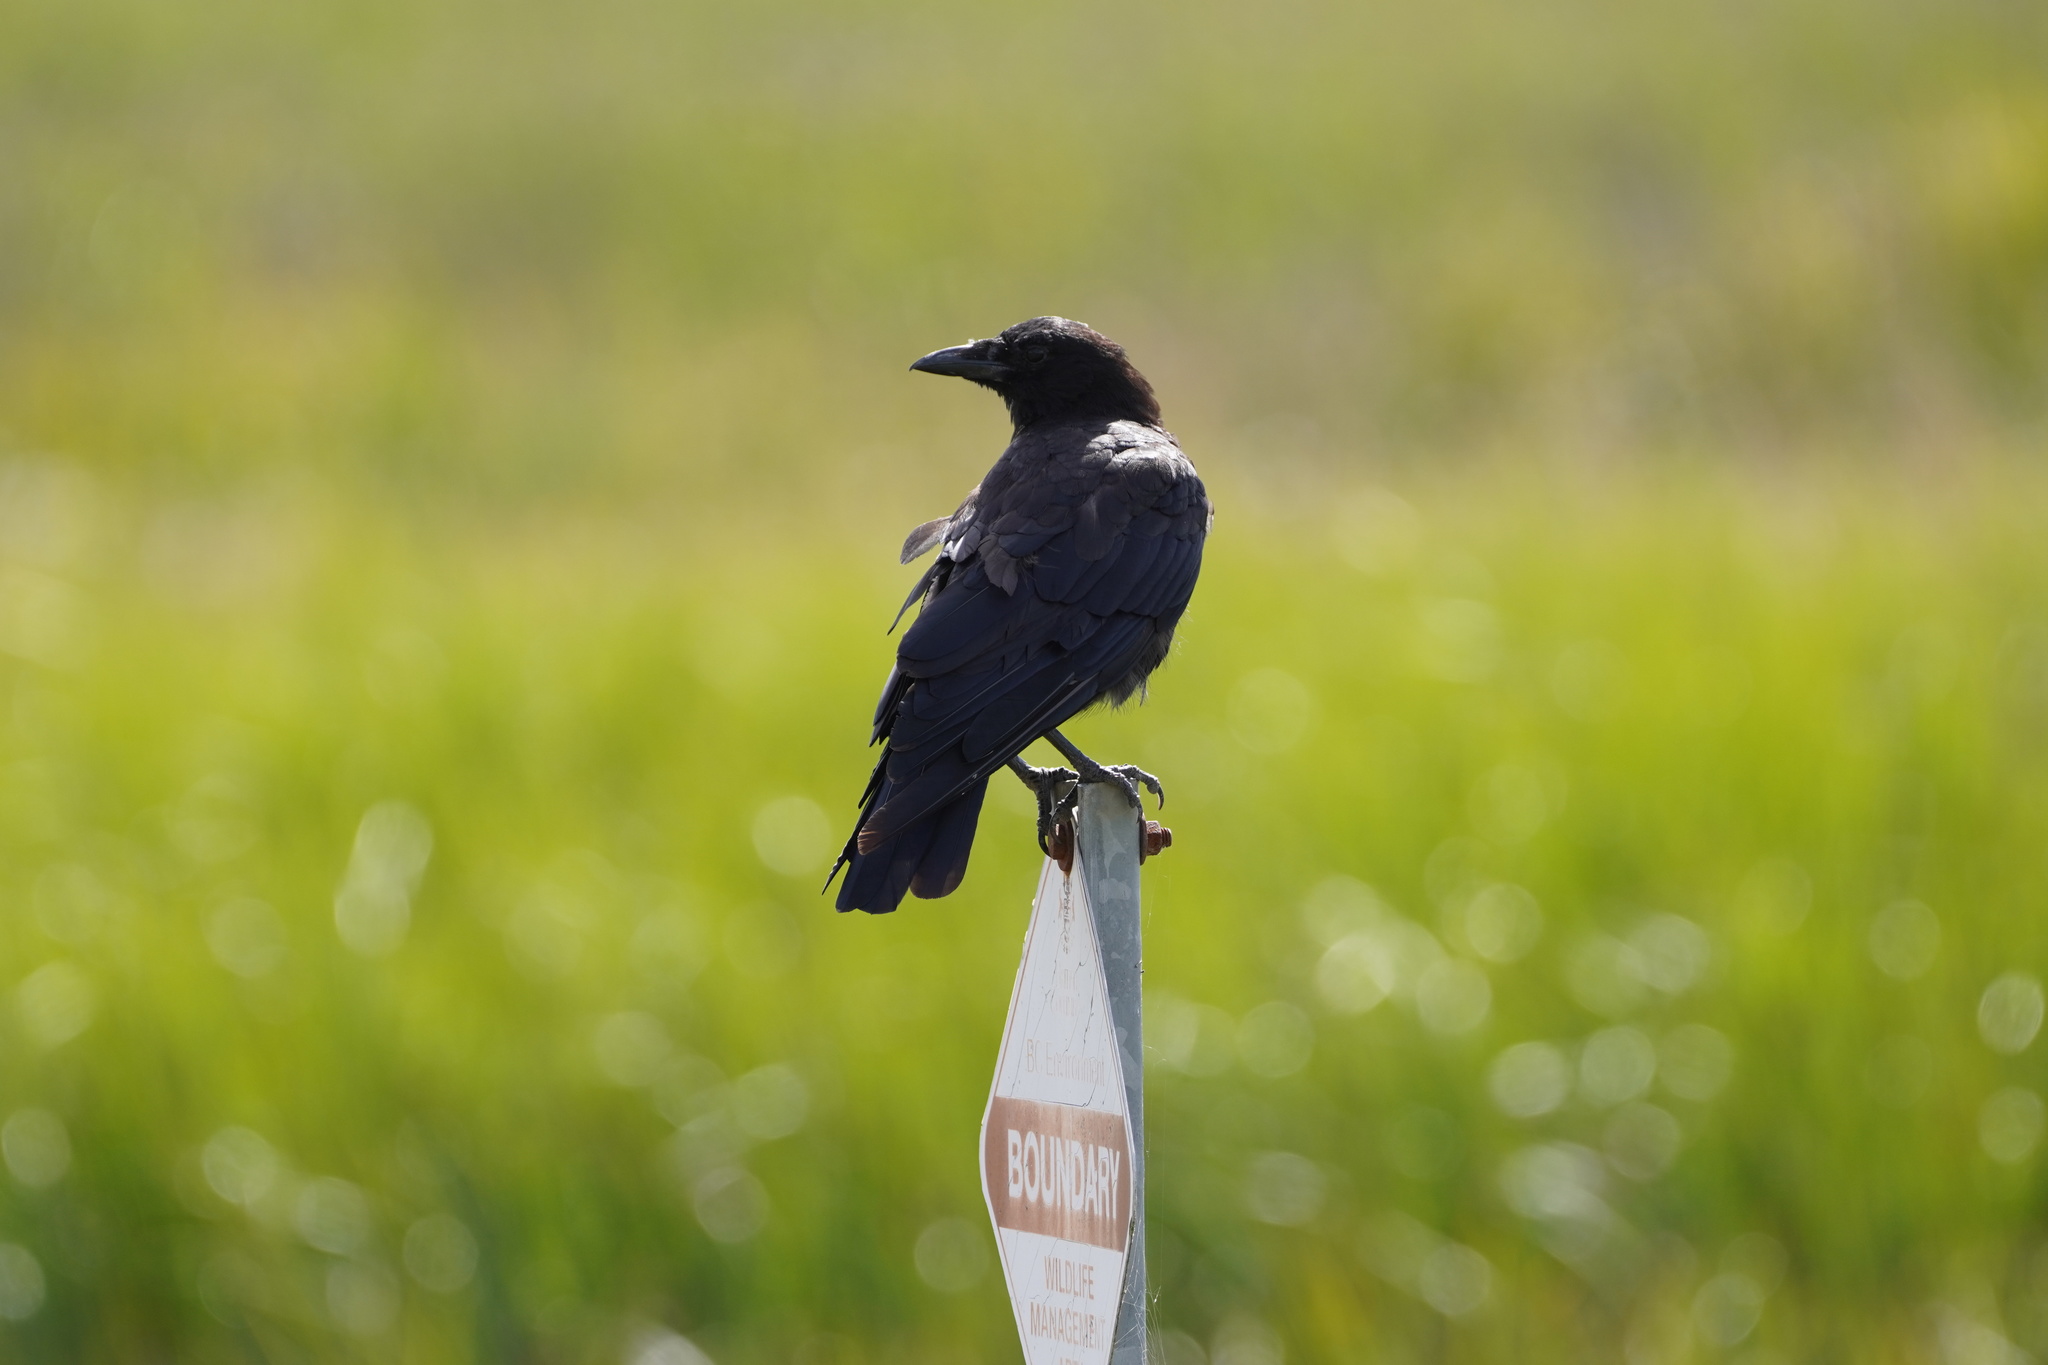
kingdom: Animalia
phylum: Chordata
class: Aves
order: Passeriformes
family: Corvidae
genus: Corvus
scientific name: Corvus brachyrhynchos
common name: American crow
